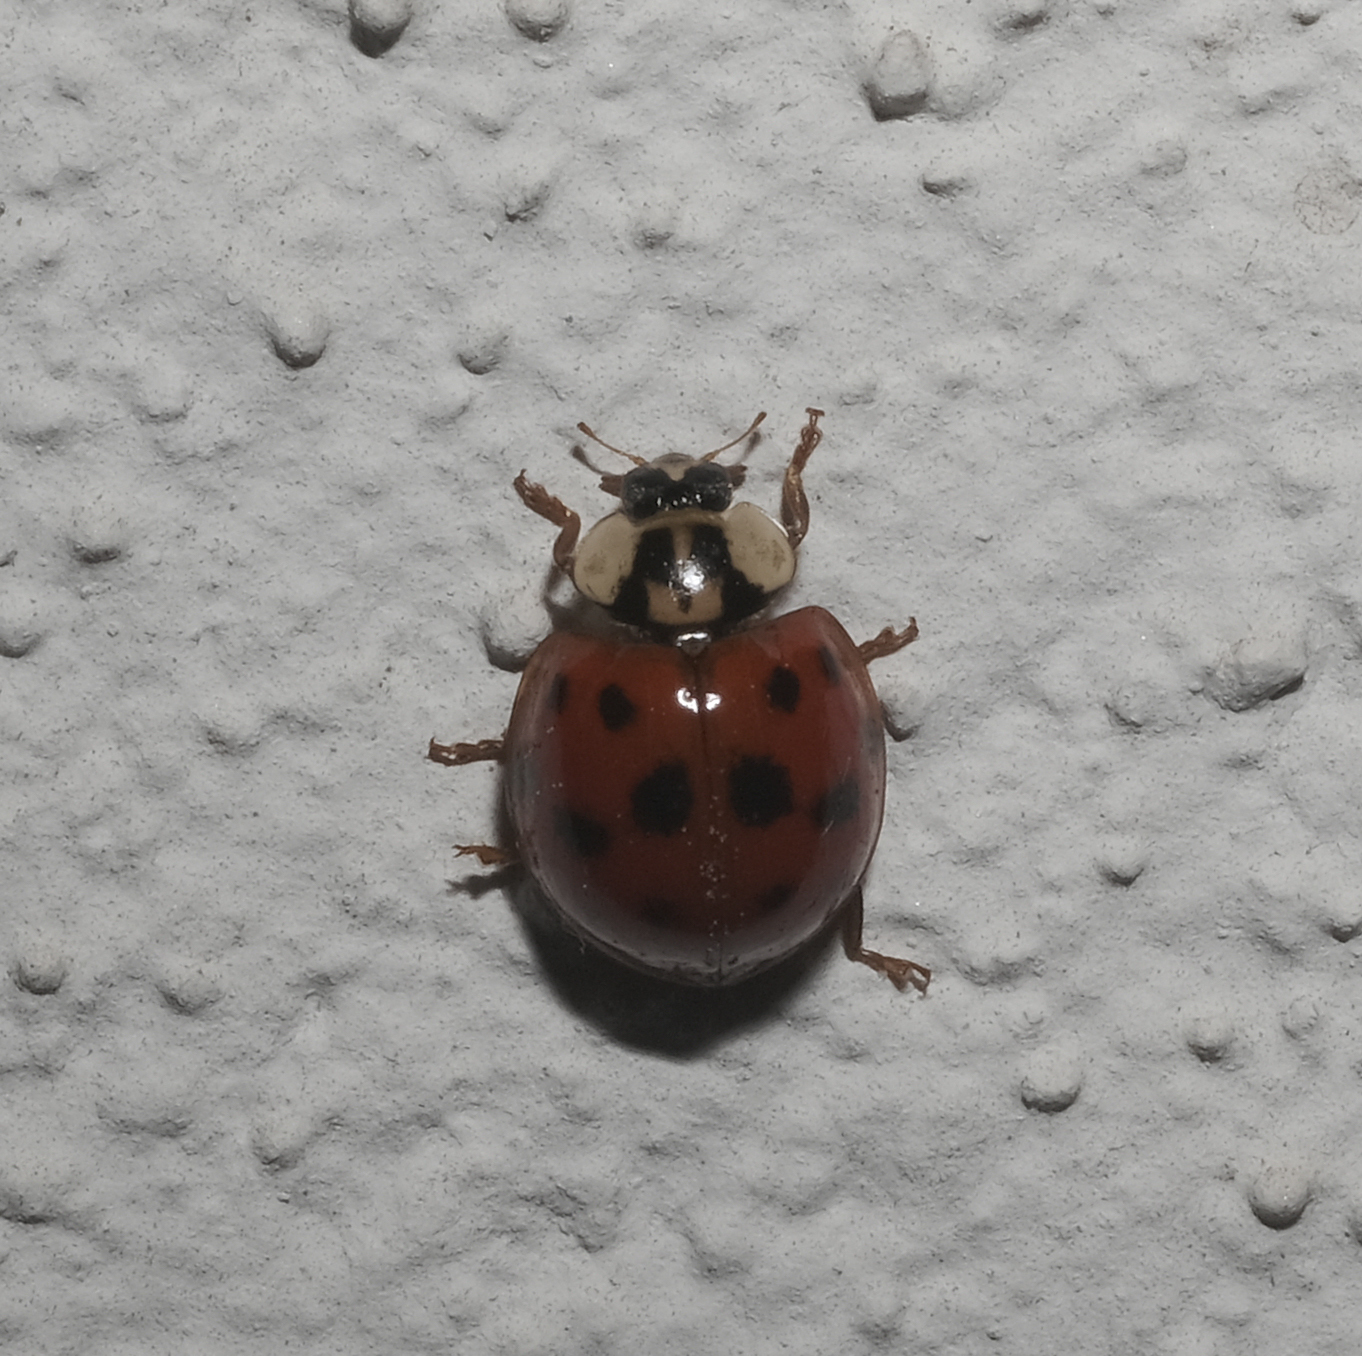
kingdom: Animalia
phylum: Arthropoda
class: Insecta
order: Coleoptera
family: Coccinellidae
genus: Harmonia
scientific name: Harmonia axyridis
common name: Harlequin ladybird
